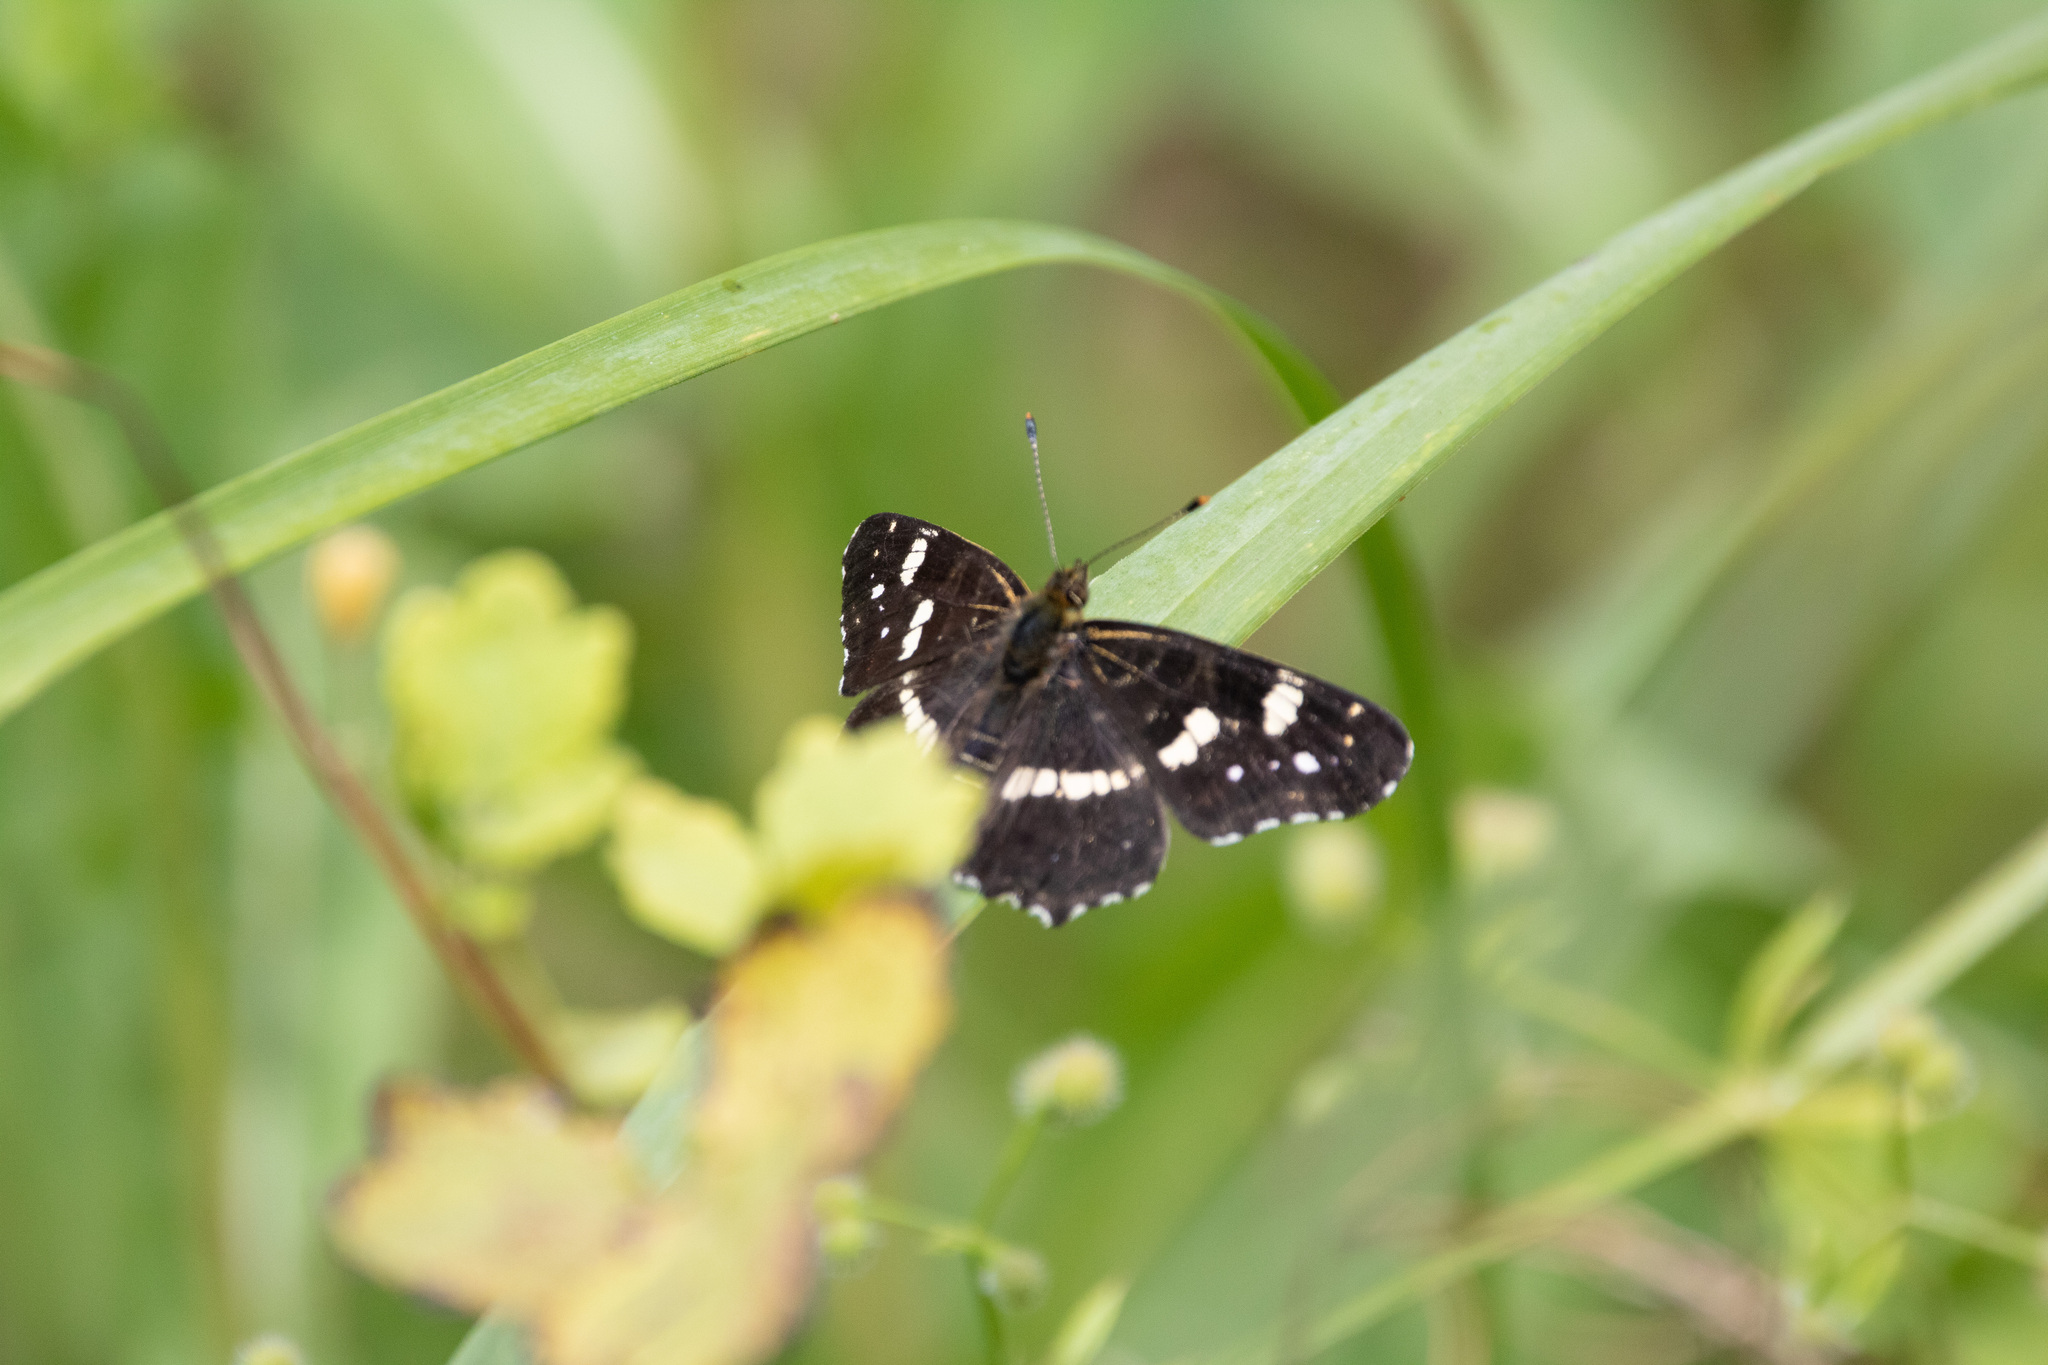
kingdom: Animalia
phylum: Arthropoda
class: Insecta
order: Lepidoptera
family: Nymphalidae
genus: Araschnia
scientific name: Araschnia levana
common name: Map butterfly
